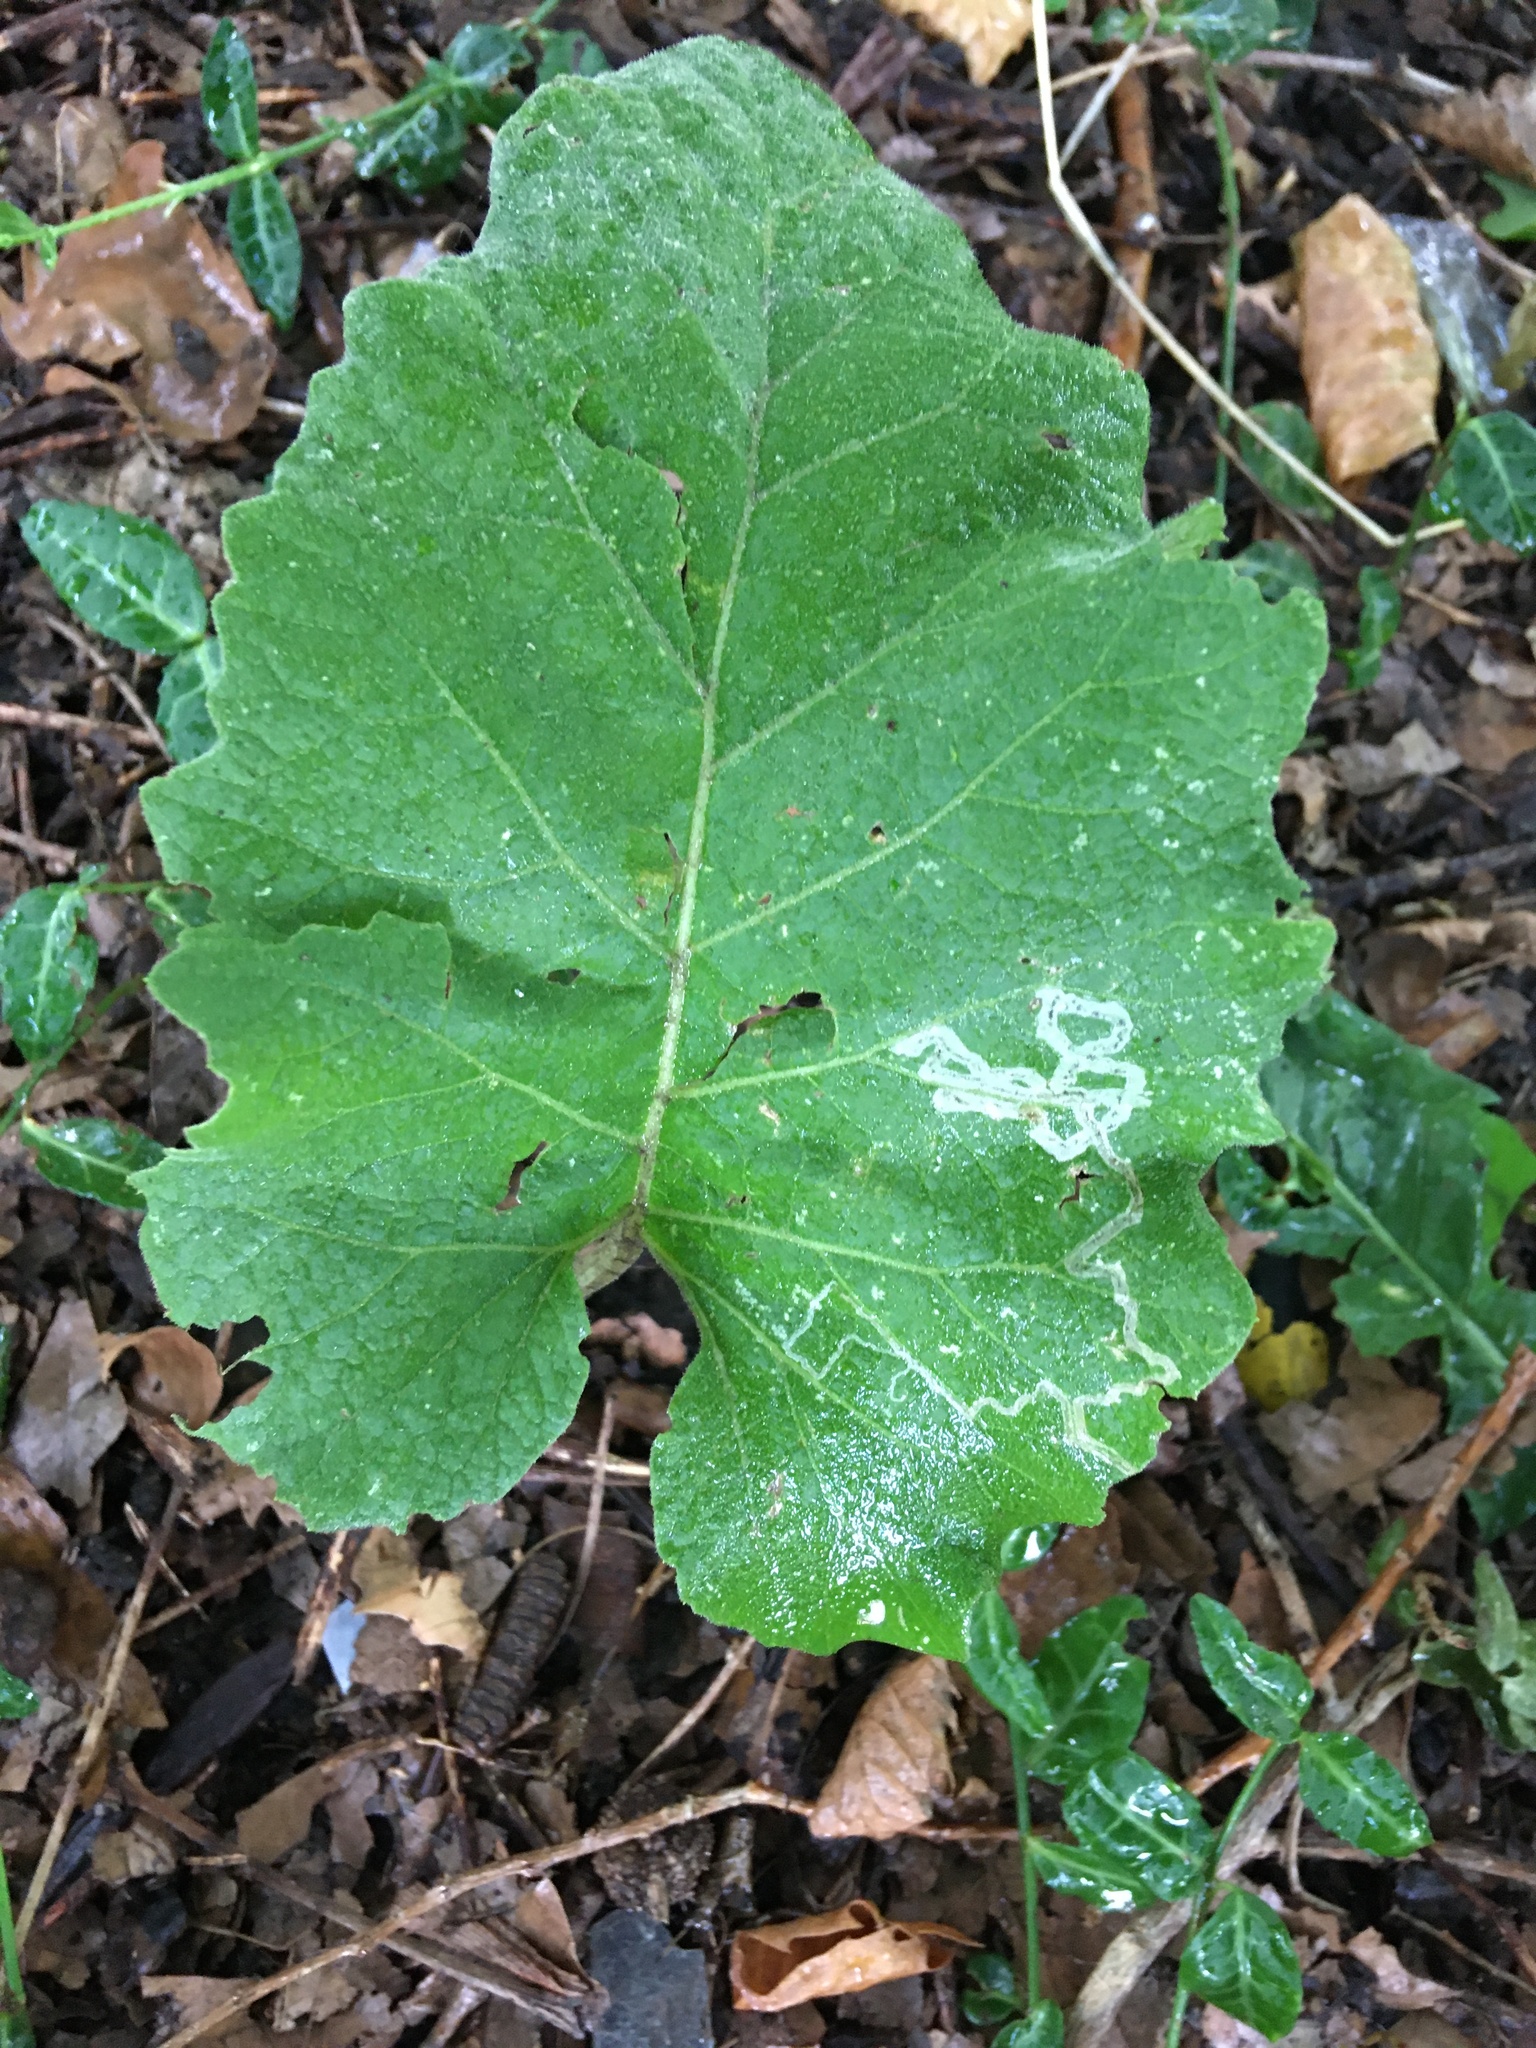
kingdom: Plantae
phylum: Tracheophyta
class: Magnoliopsida
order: Asterales
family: Asteraceae
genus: Arctium
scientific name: Arctium
